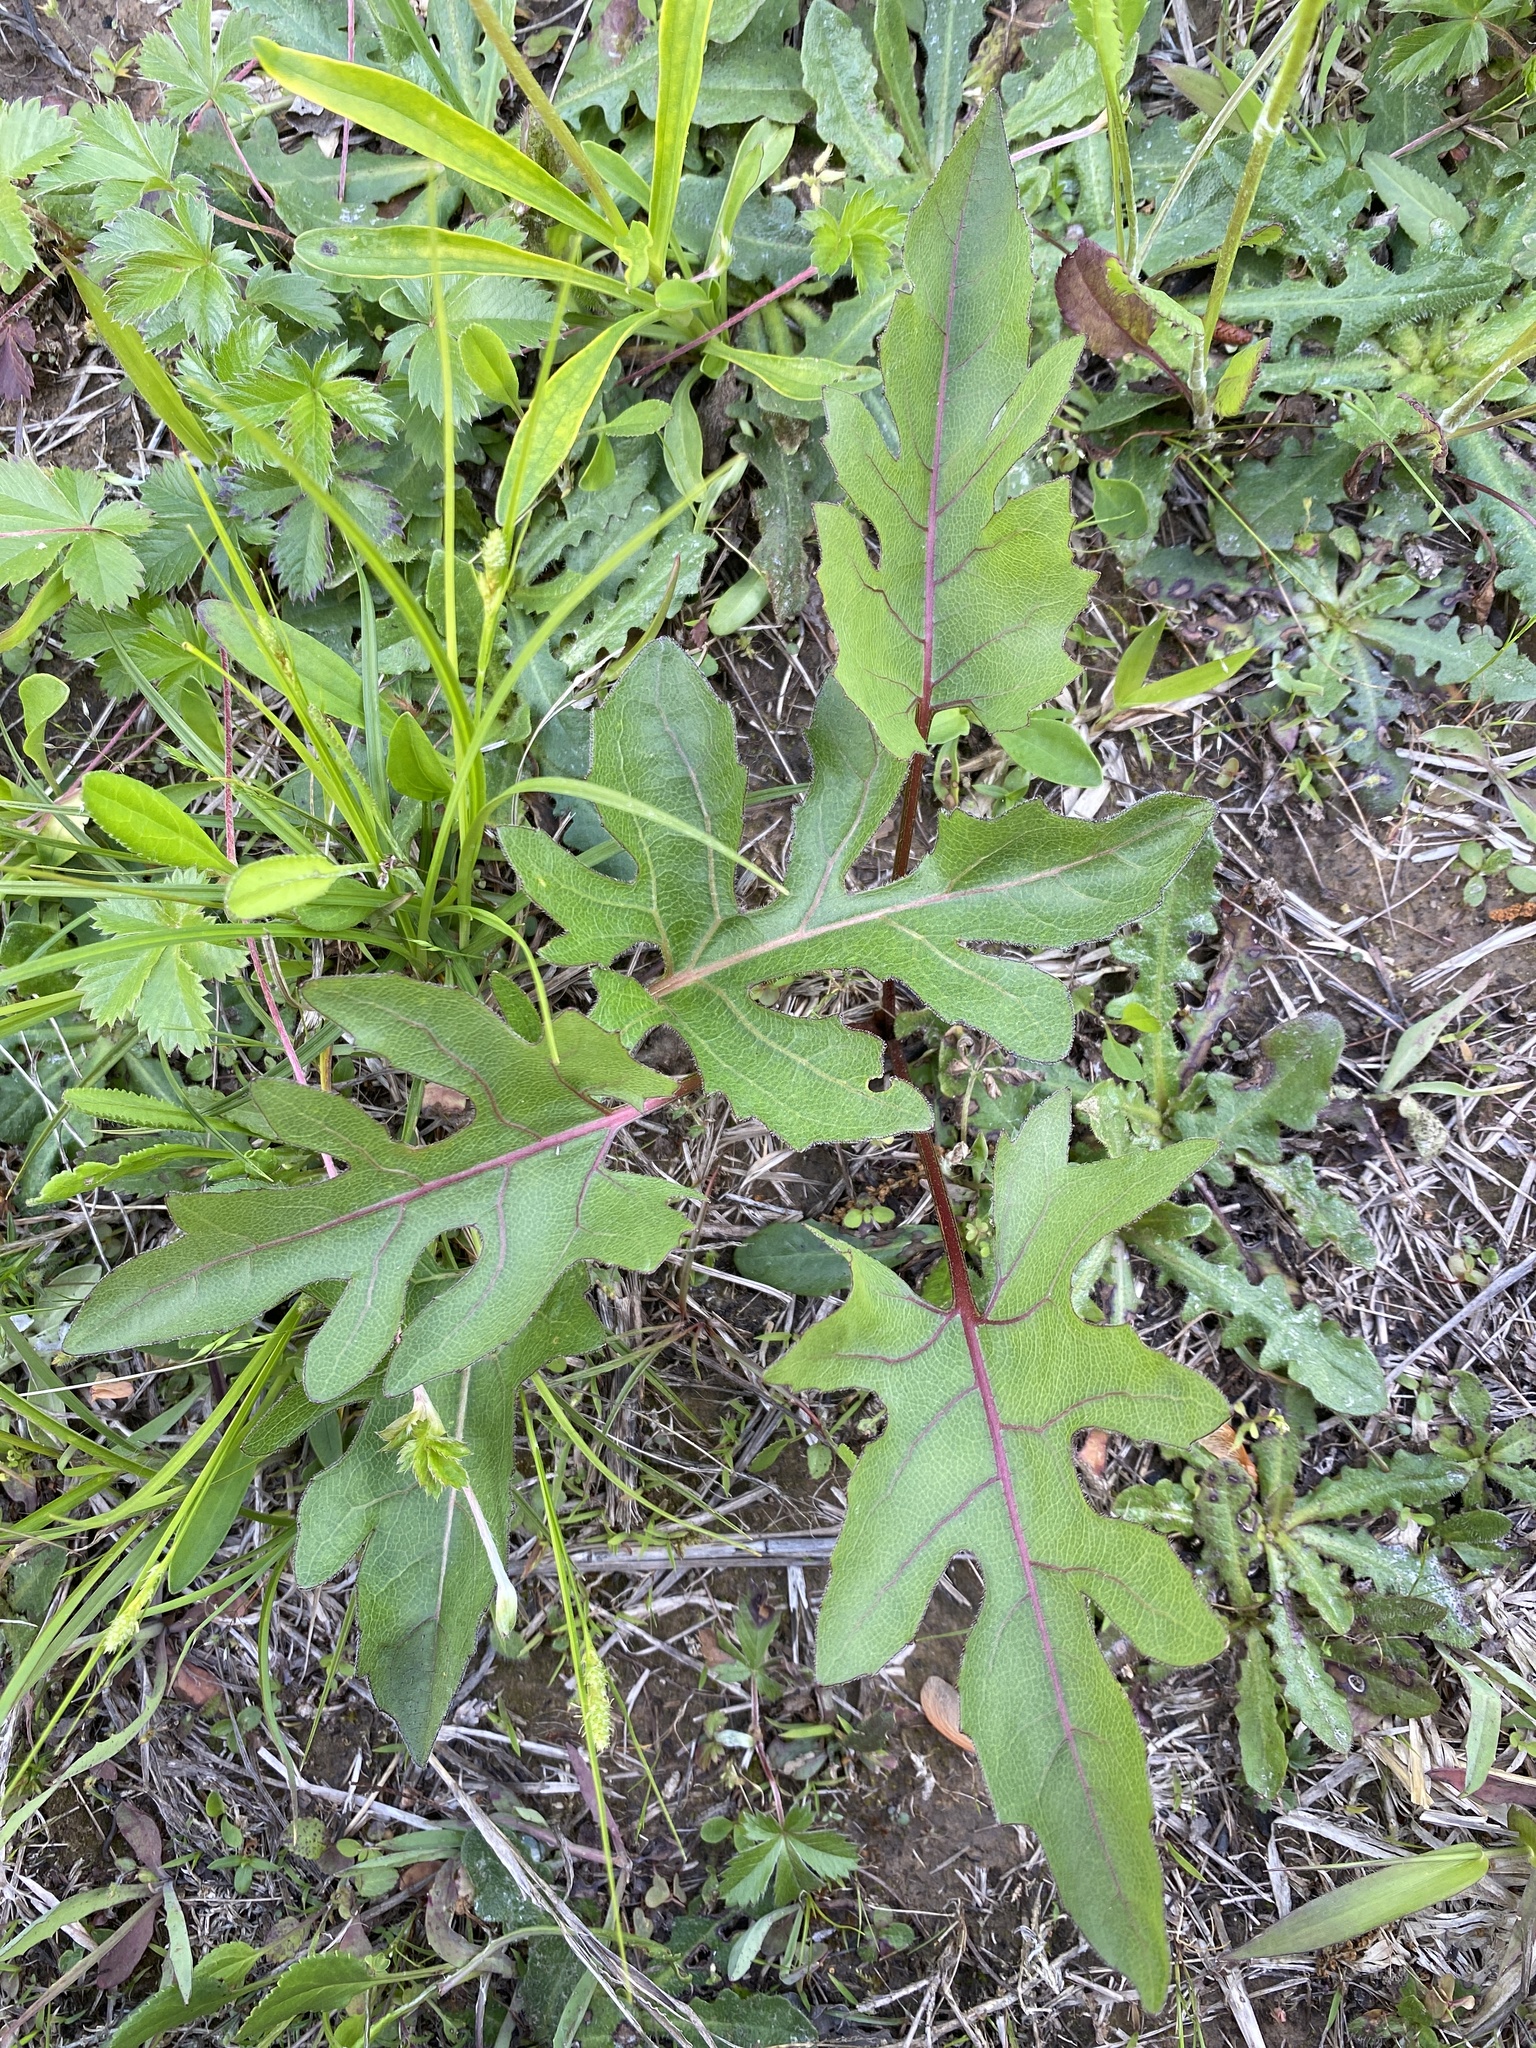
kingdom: Plantae
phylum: Tracheophyta
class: Magnoliopsida
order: Asterales
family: Asteraceae
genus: Silphium
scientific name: Silphium compositum
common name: Lesser basal-leaf rosinweed
